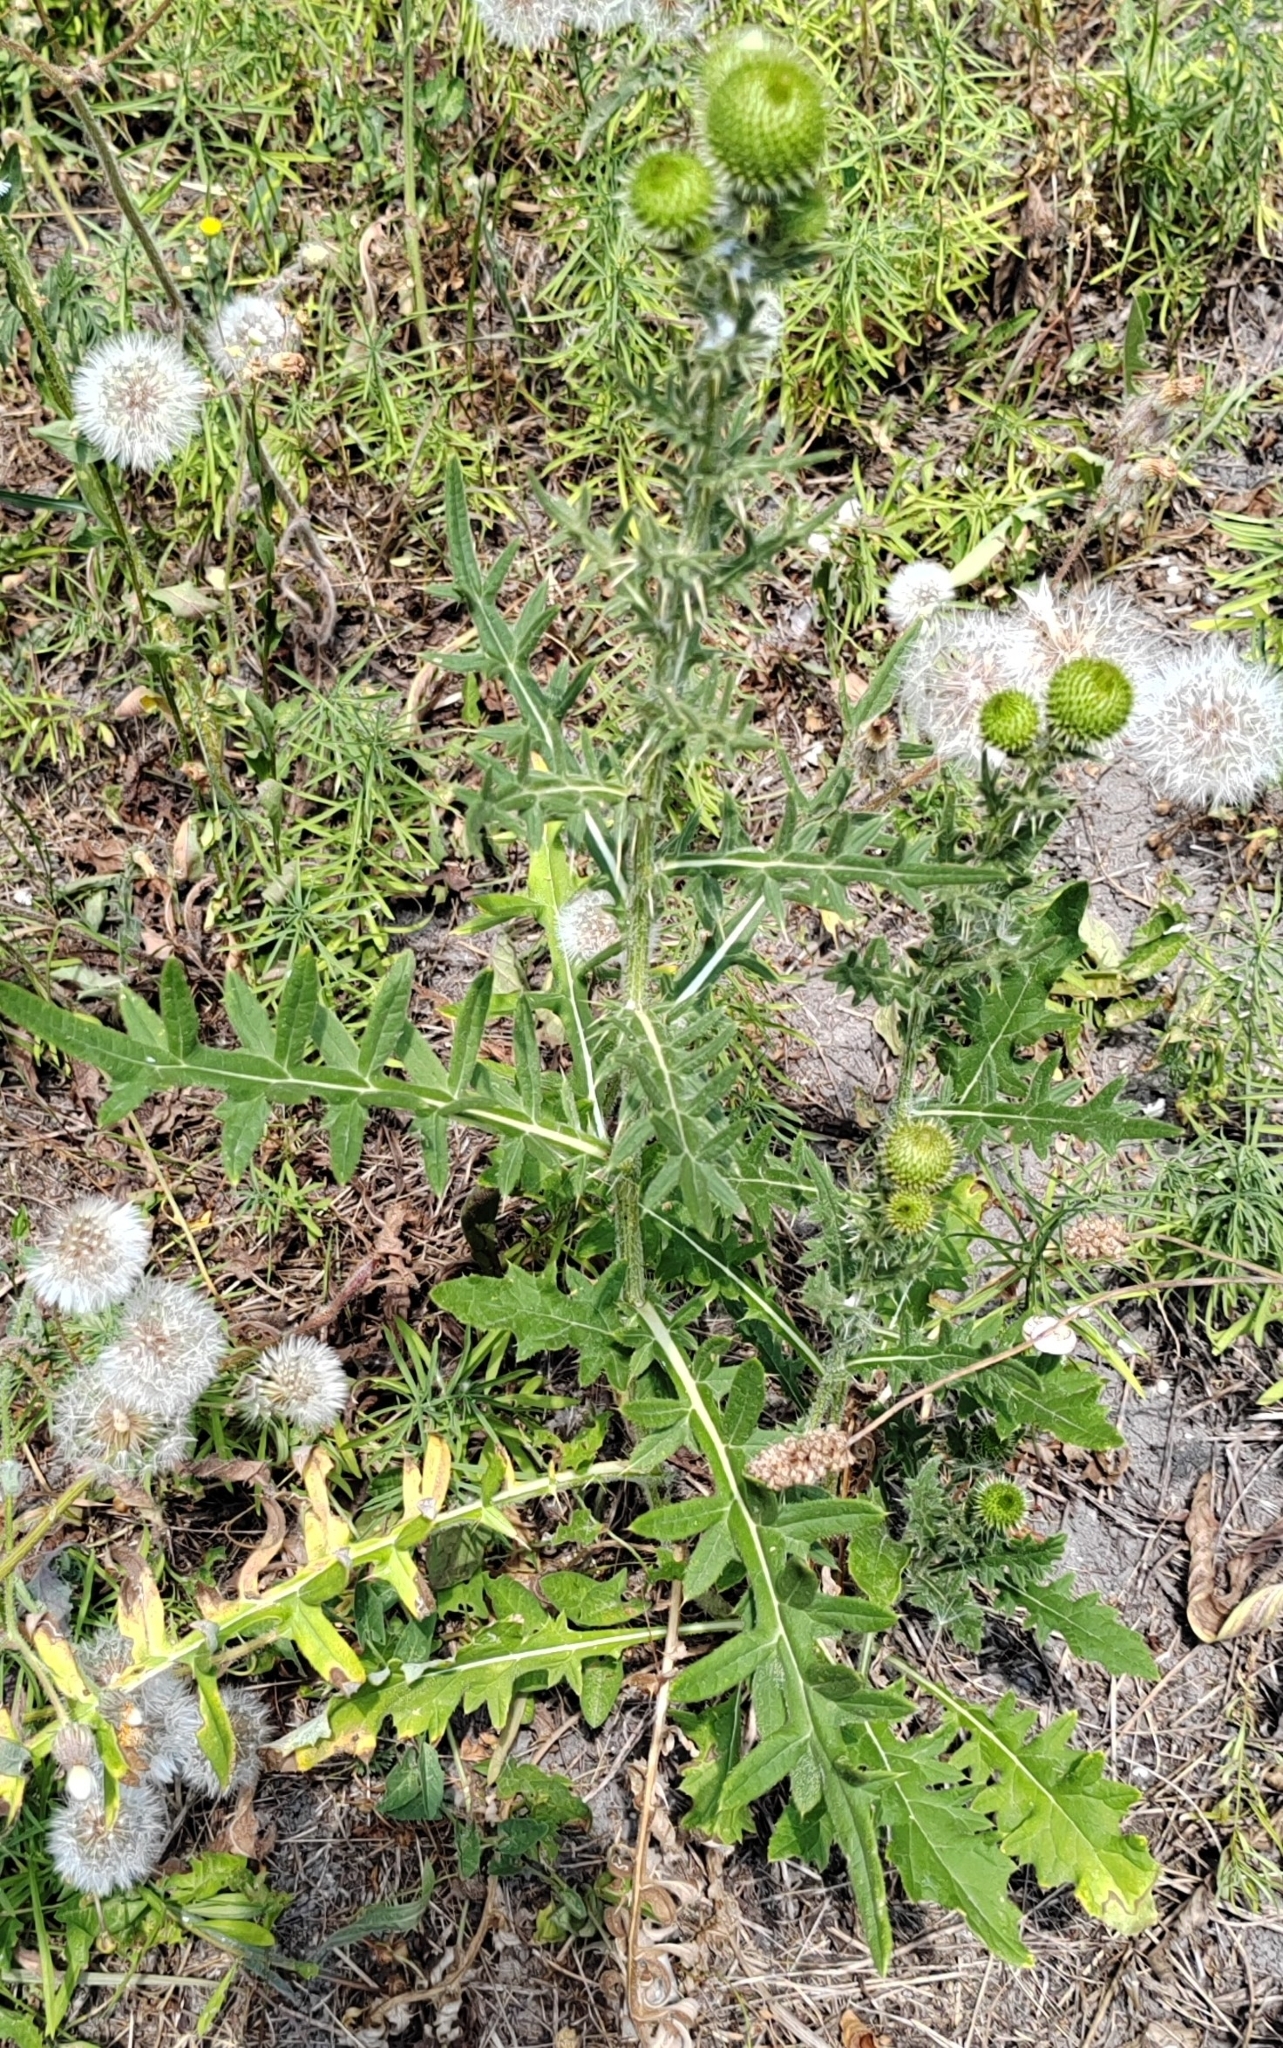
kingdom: Plantae
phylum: Tracheophyta
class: Magnoliopsida
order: Asterales
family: Asteraceae
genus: Cirsium
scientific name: Cirsium serrulatum
